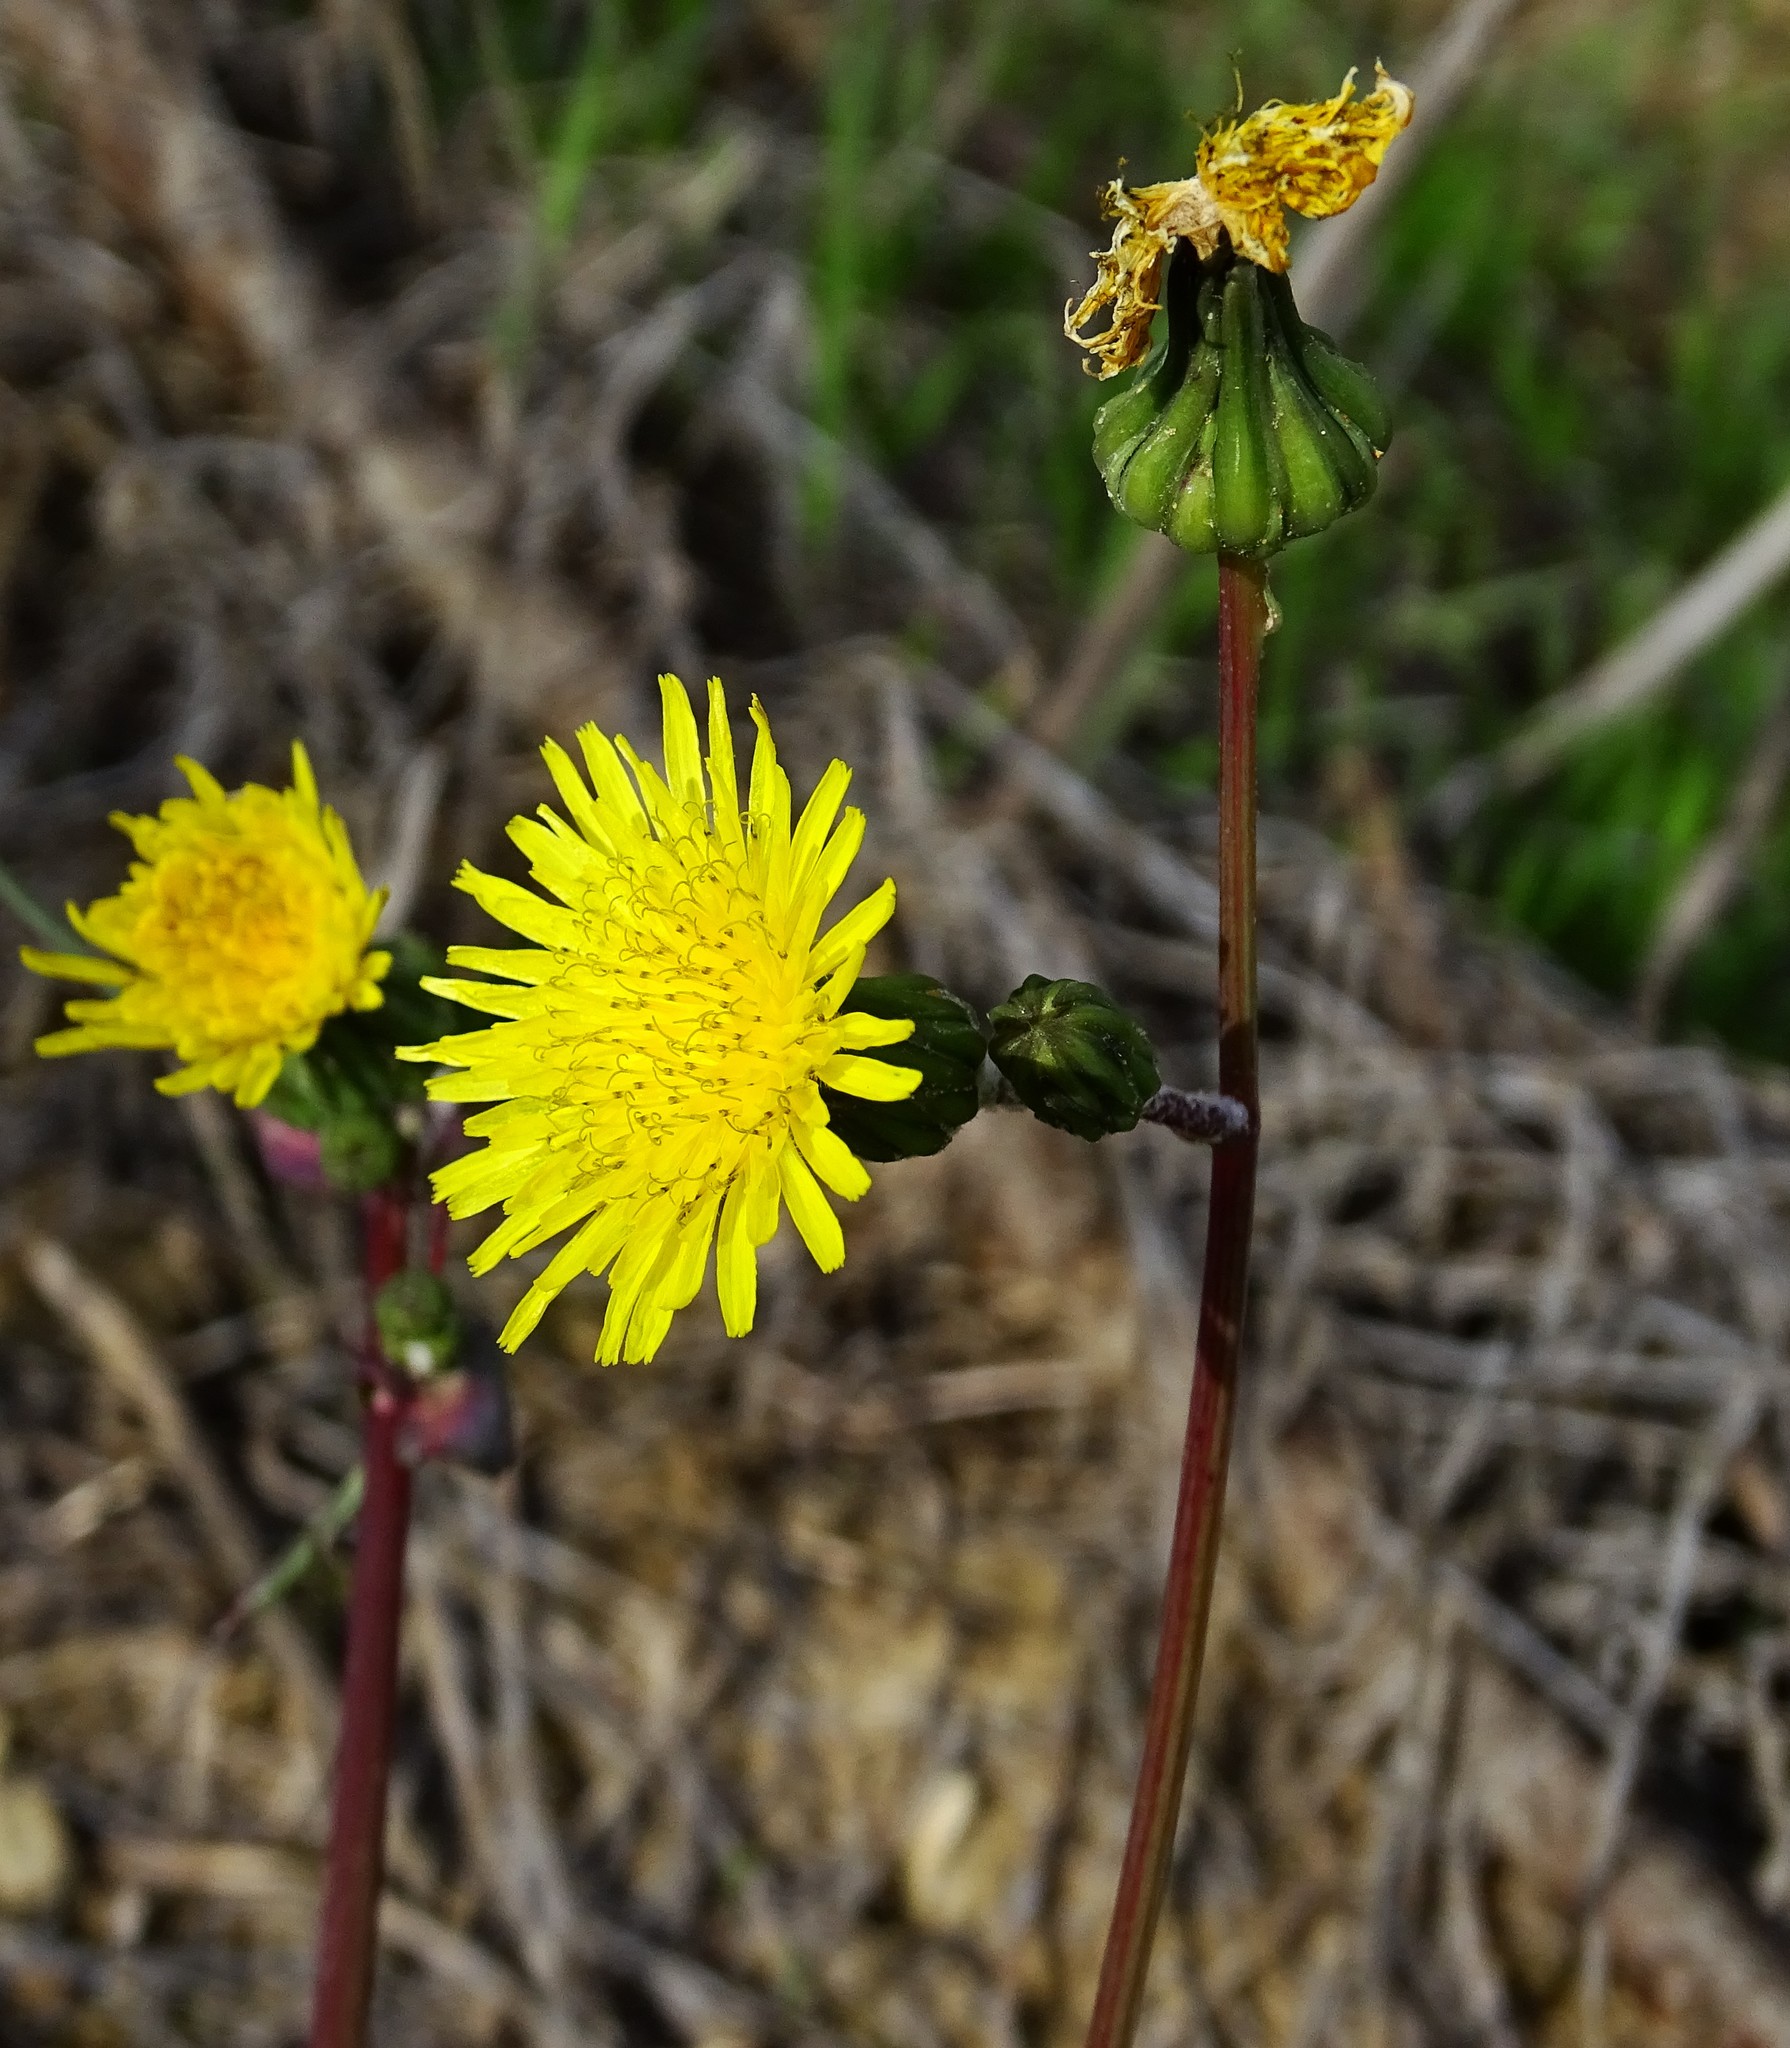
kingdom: Plantae
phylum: Tracheophyta
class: Magnoliopsida
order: Asterales
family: Asteraceae
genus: Sonchus
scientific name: Sonchus oleraceus
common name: Common sowthistle
